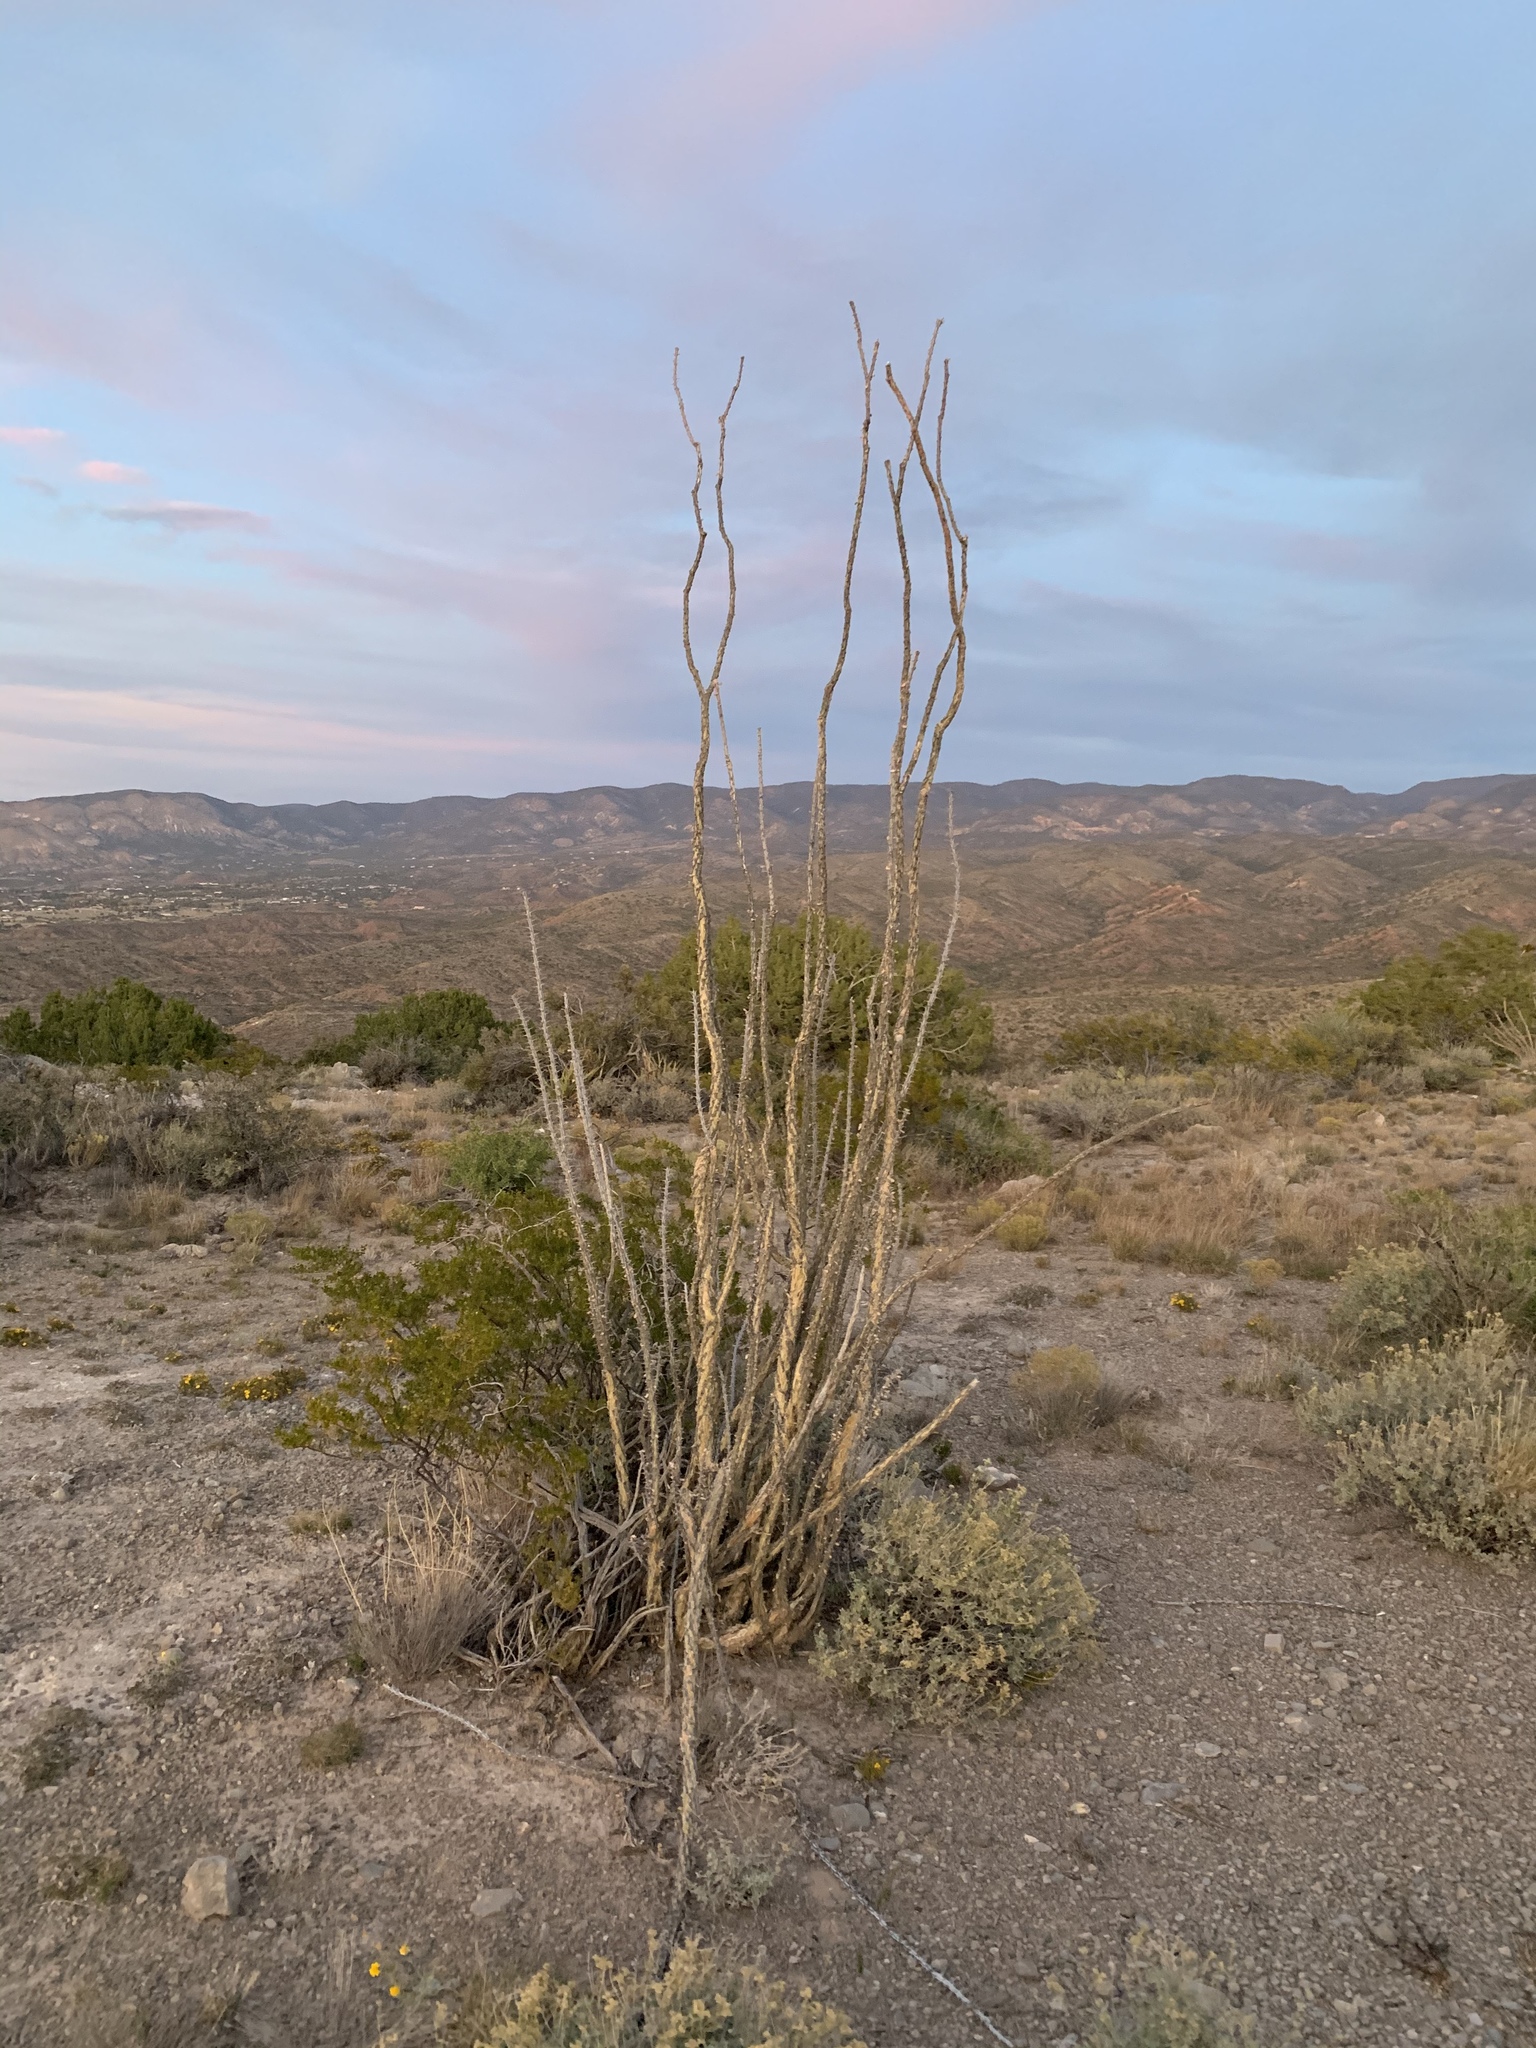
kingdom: Plantae
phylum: Tracheophyta
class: Magnoliopsida
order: Ericales
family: Fouquieriaceae
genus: Fouquieria
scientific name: Fouquieria splendens
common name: Vine-cactus
